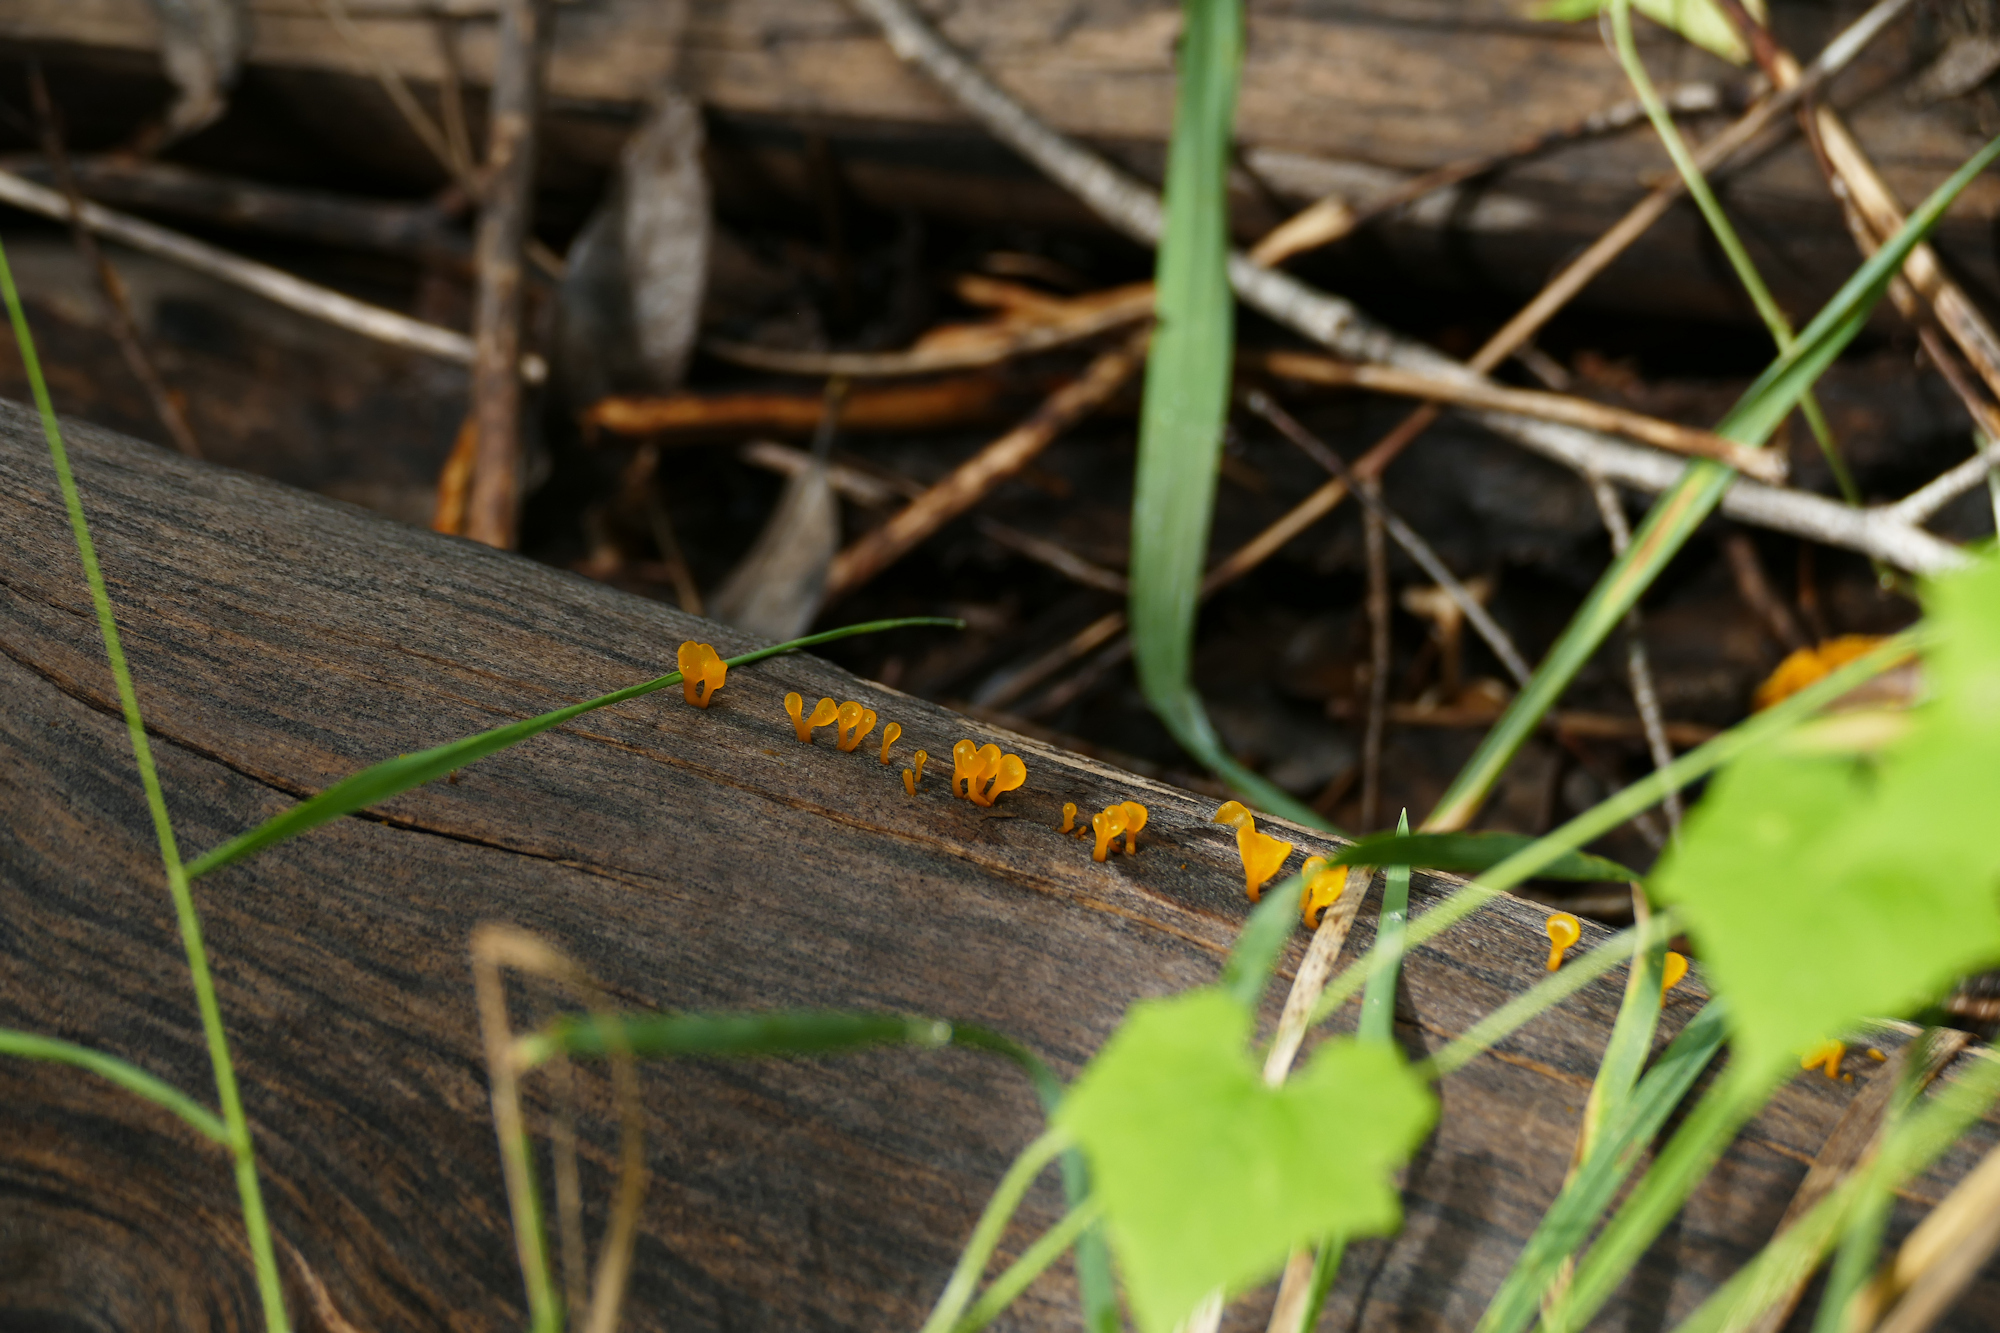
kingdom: Fungi
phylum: Basidiomycota
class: Dacrymycetes
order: Dacrymycetales
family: Dacrymycetaceae
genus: Dacrymyces
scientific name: Dacrymyces spathularius
